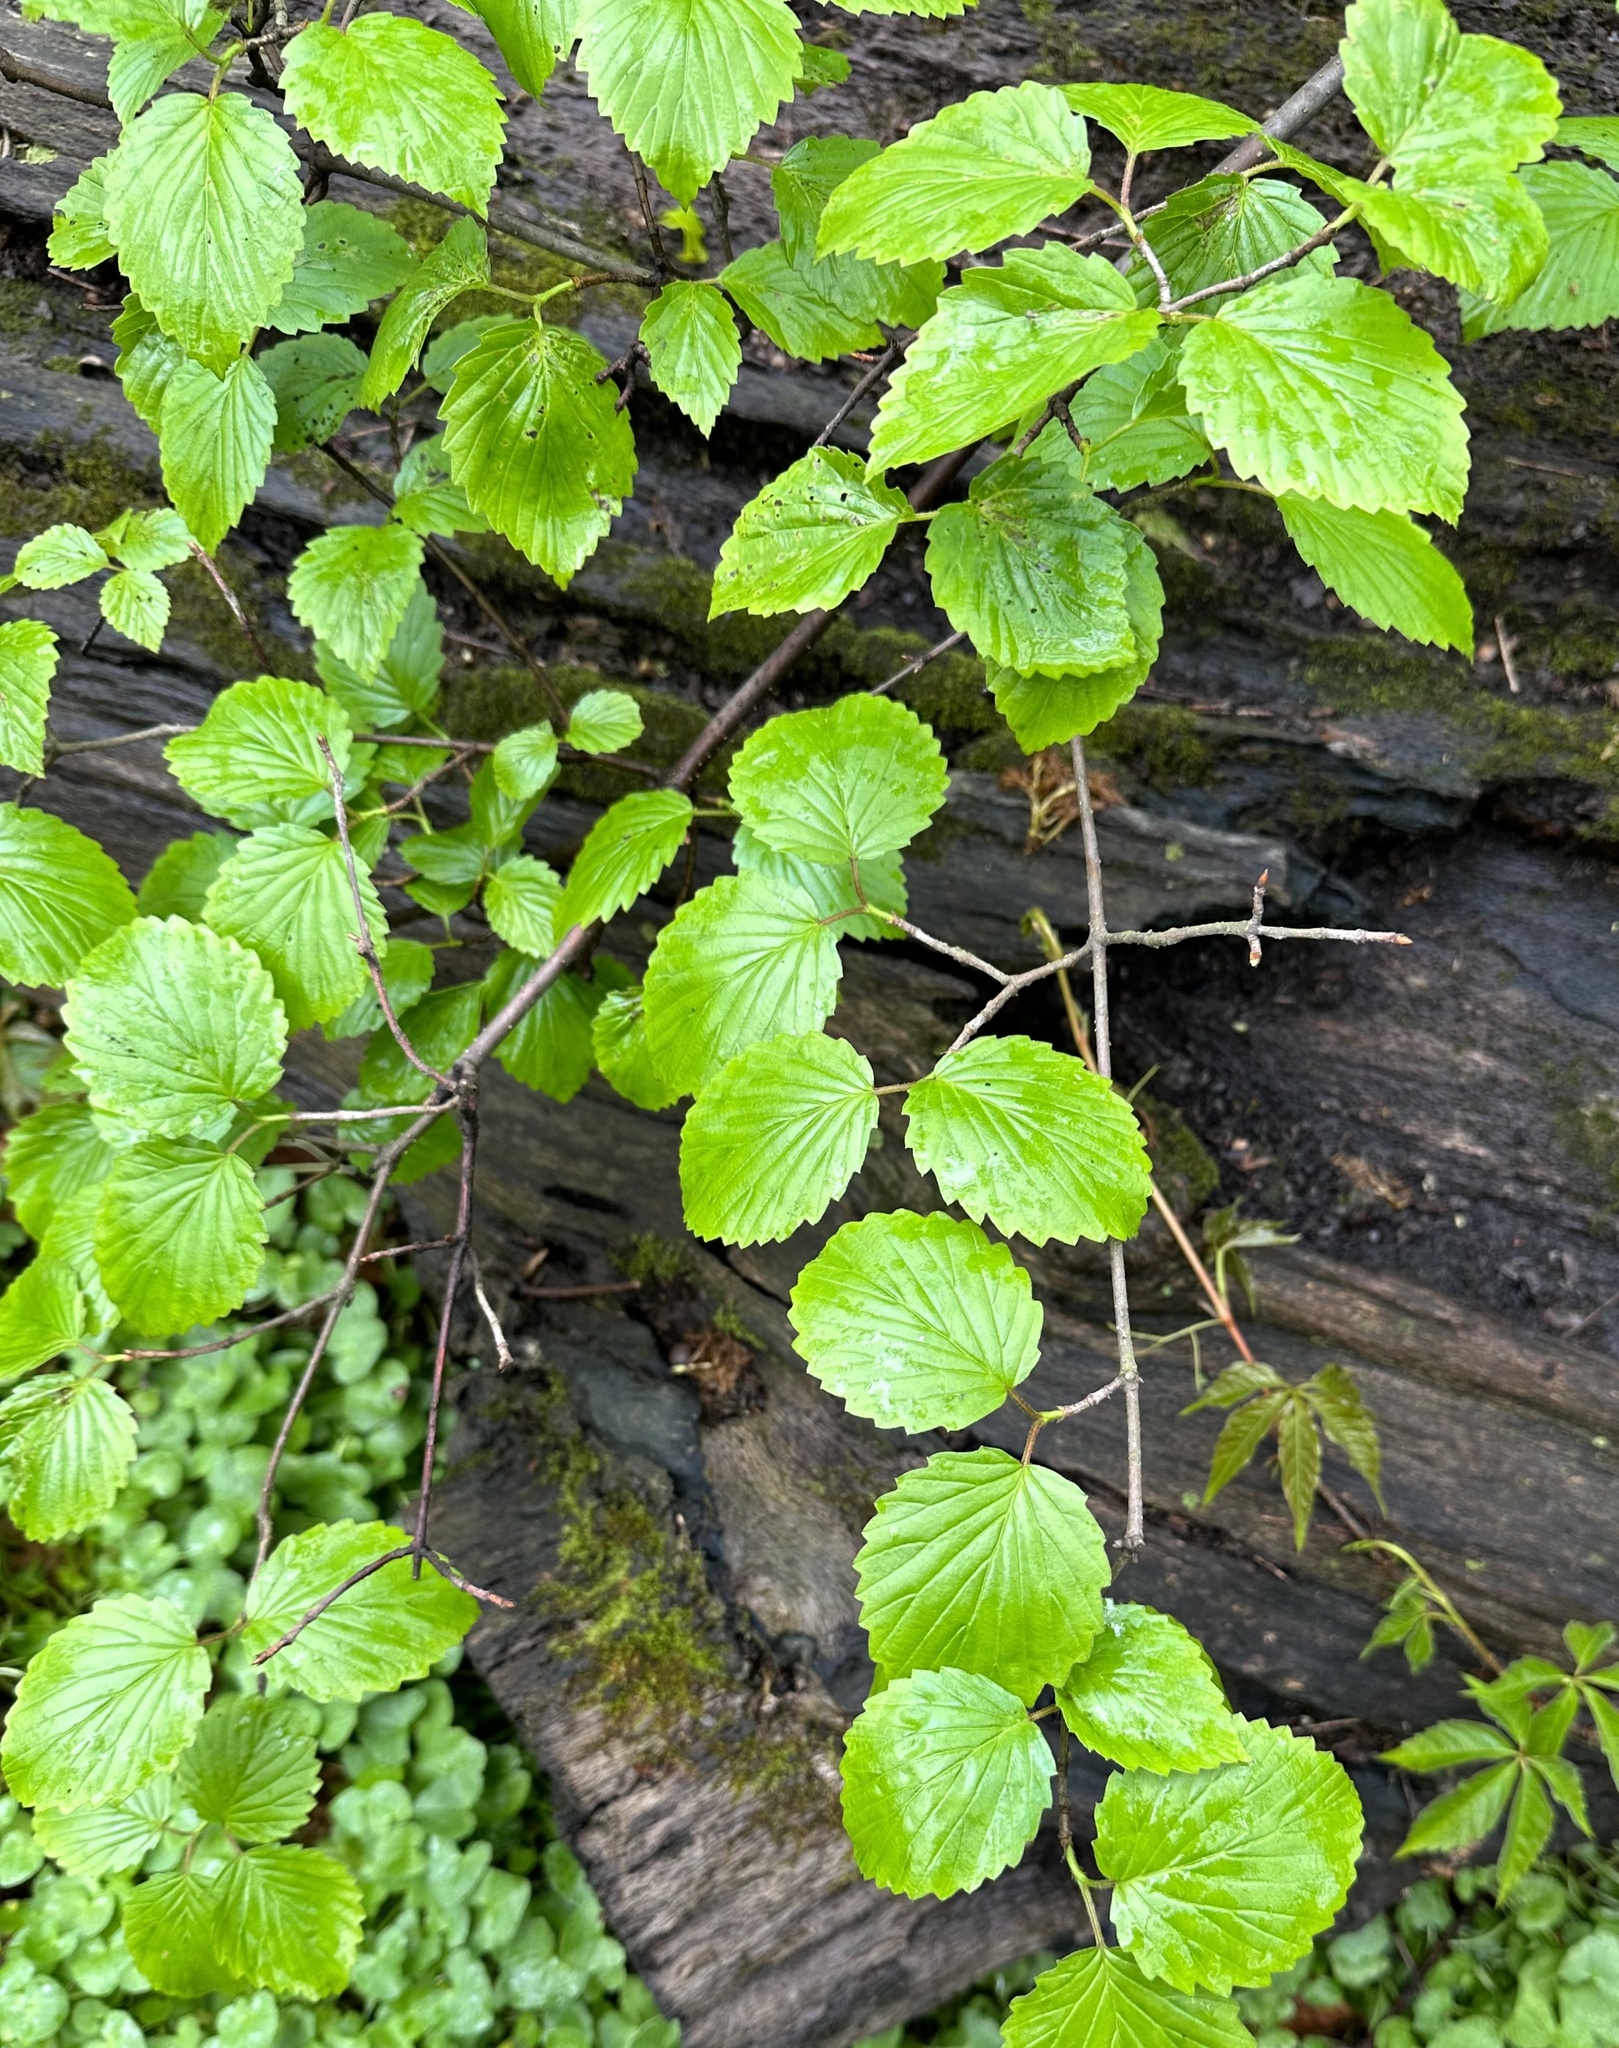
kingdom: Plantae
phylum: Tracheophyta
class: Magnoliopsida
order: Dipsacales
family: Viburnaceae
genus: Viburnum
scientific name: Viburnum dentatum
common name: Arrow-wood
